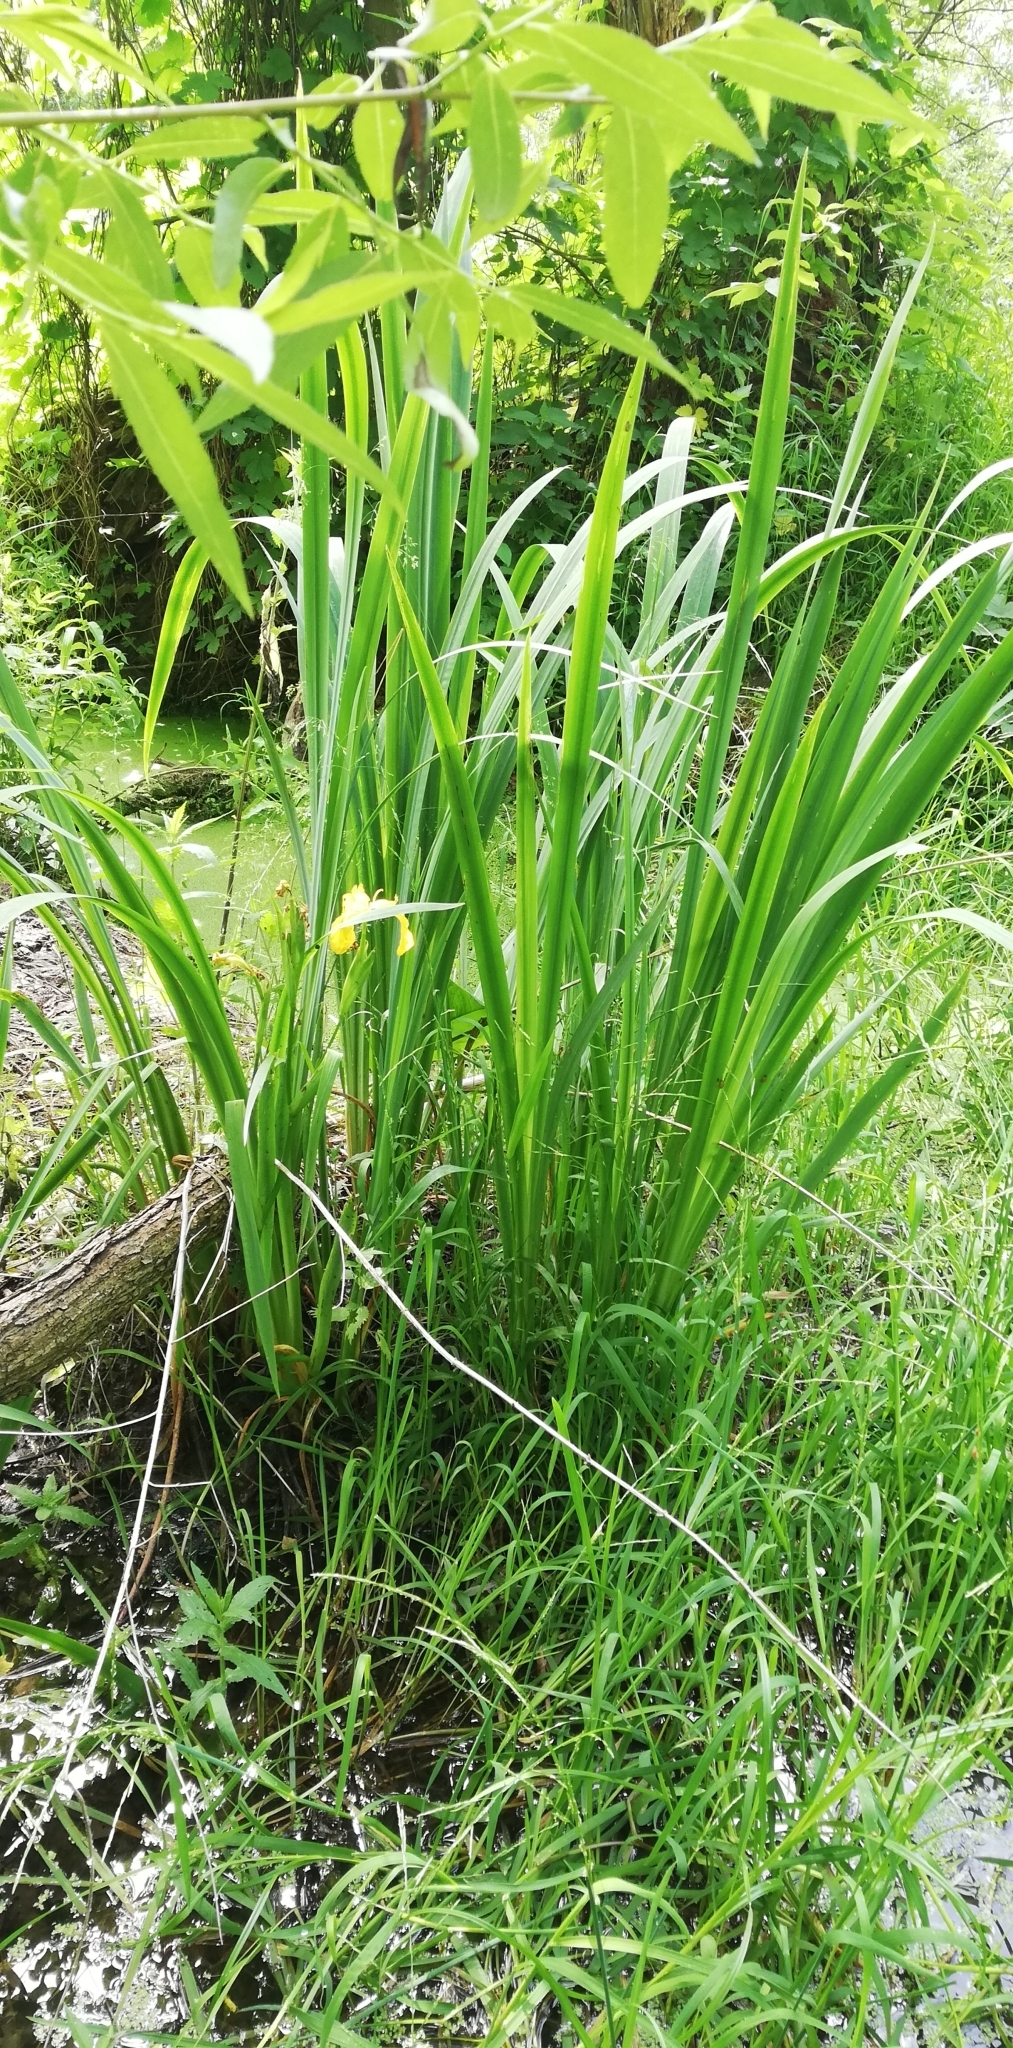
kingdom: Plantae
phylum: Tracheophyta
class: Liliopsida
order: Asparagales
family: Iridaceae
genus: Iris
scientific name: Iris pseudacorus
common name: Yellow flag
